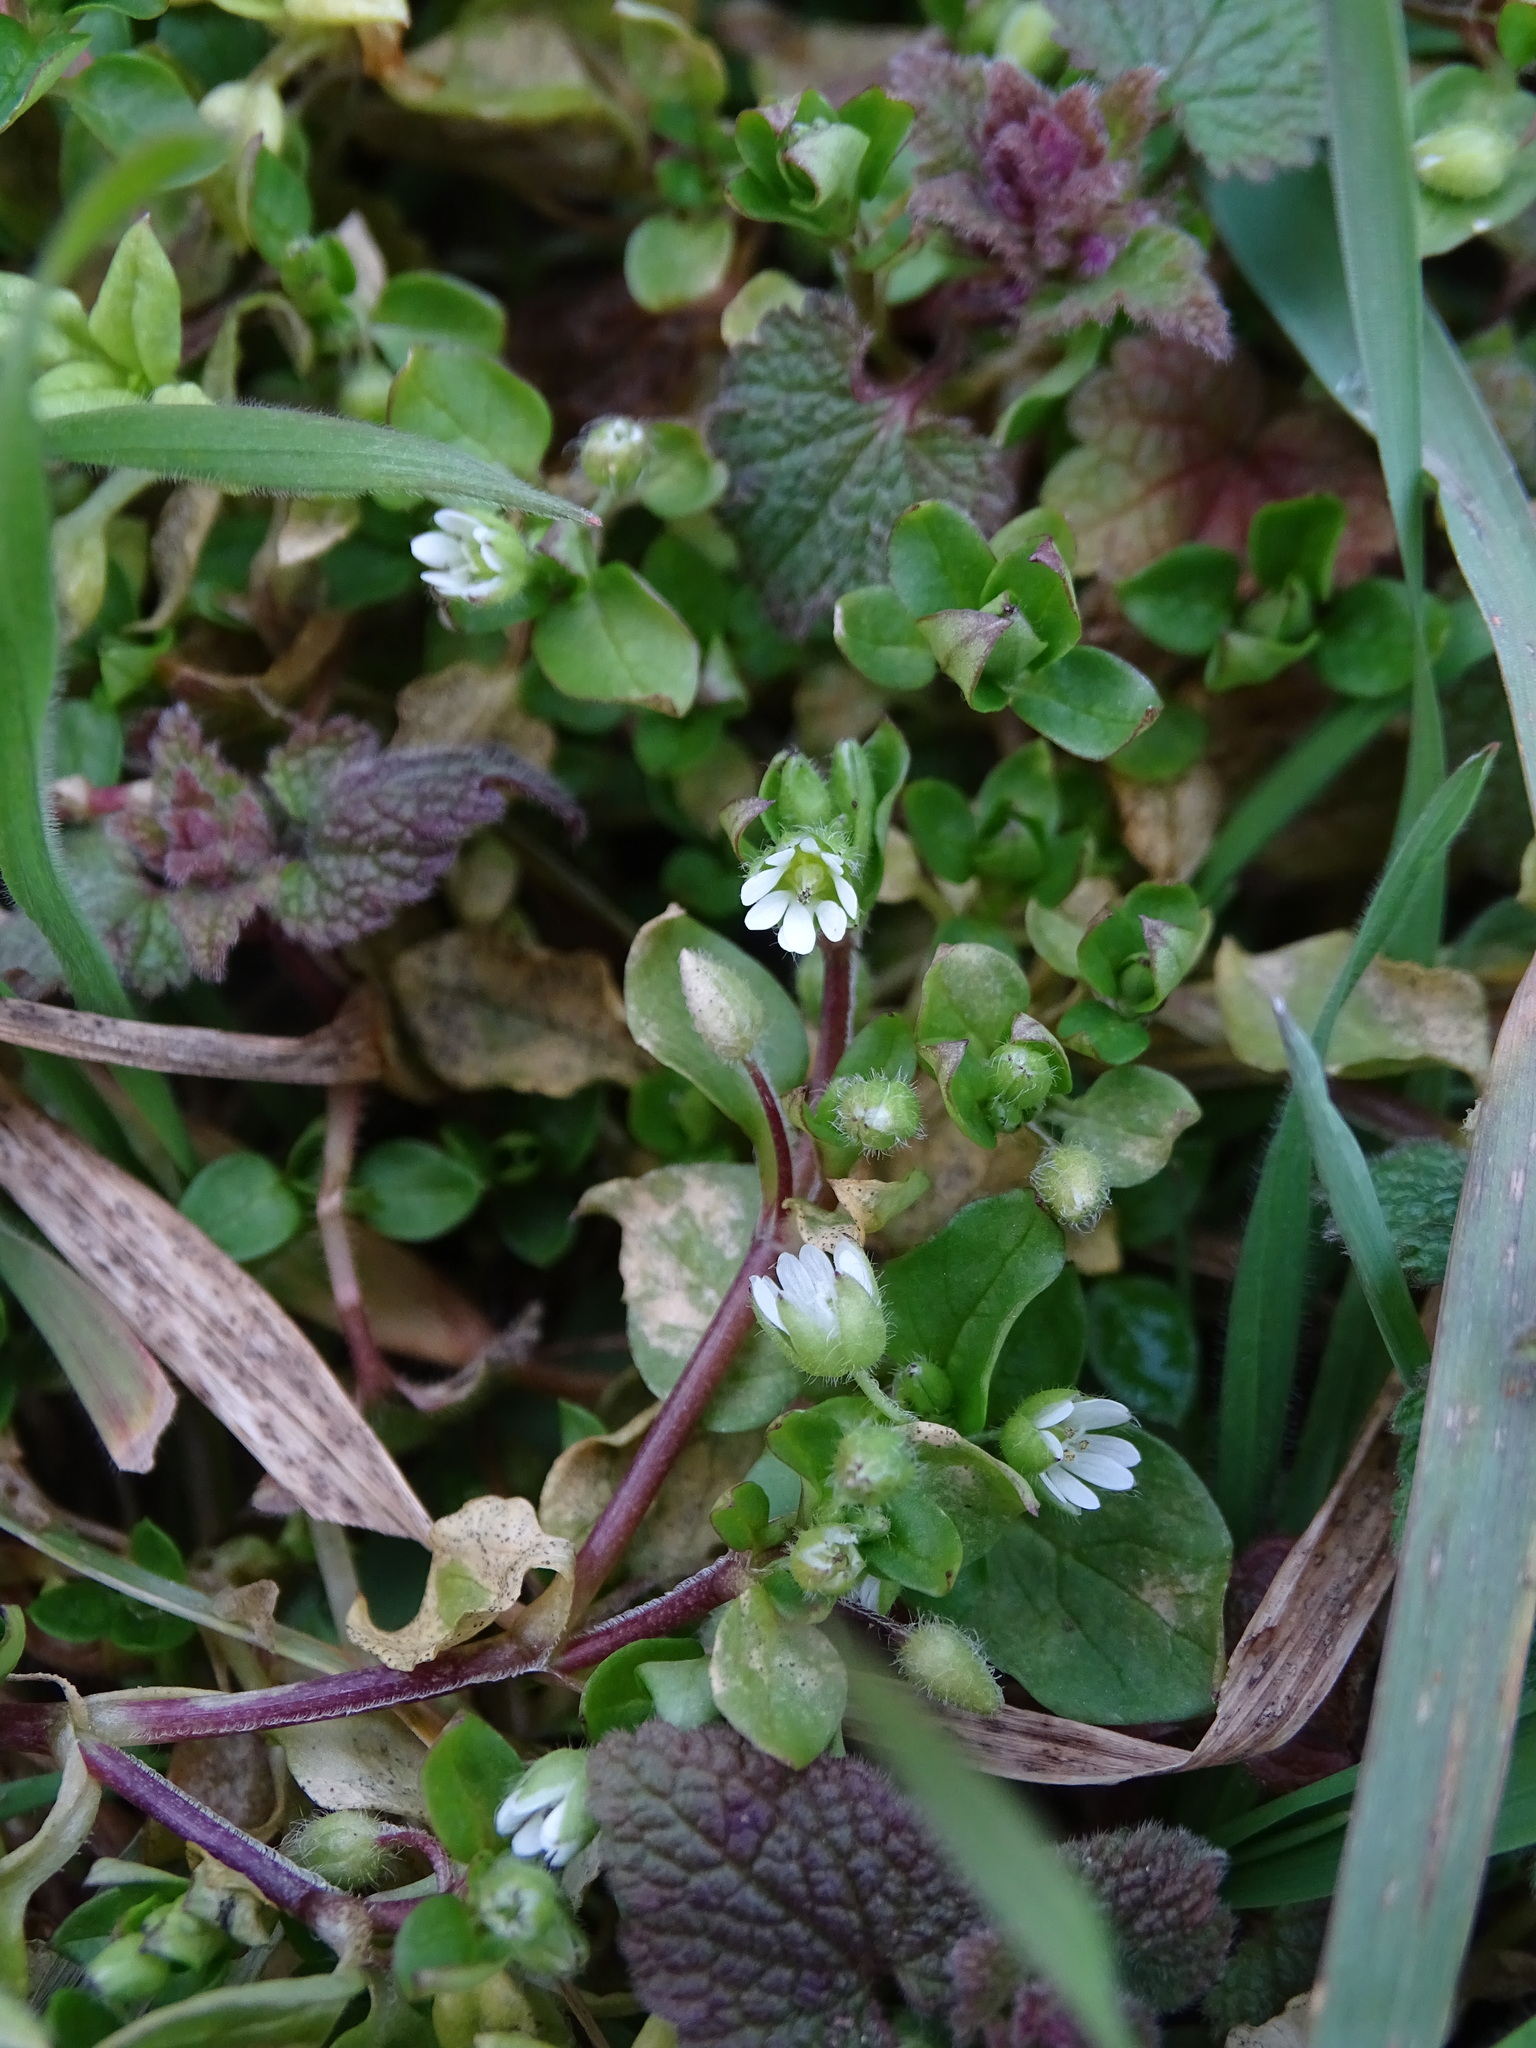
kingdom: Plantae
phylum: Tracheophyta
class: Magnoliopsida
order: Caryophyllales
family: Caryophyllaceae
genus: Stellaria
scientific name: Stellaria media
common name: Common chickweed
